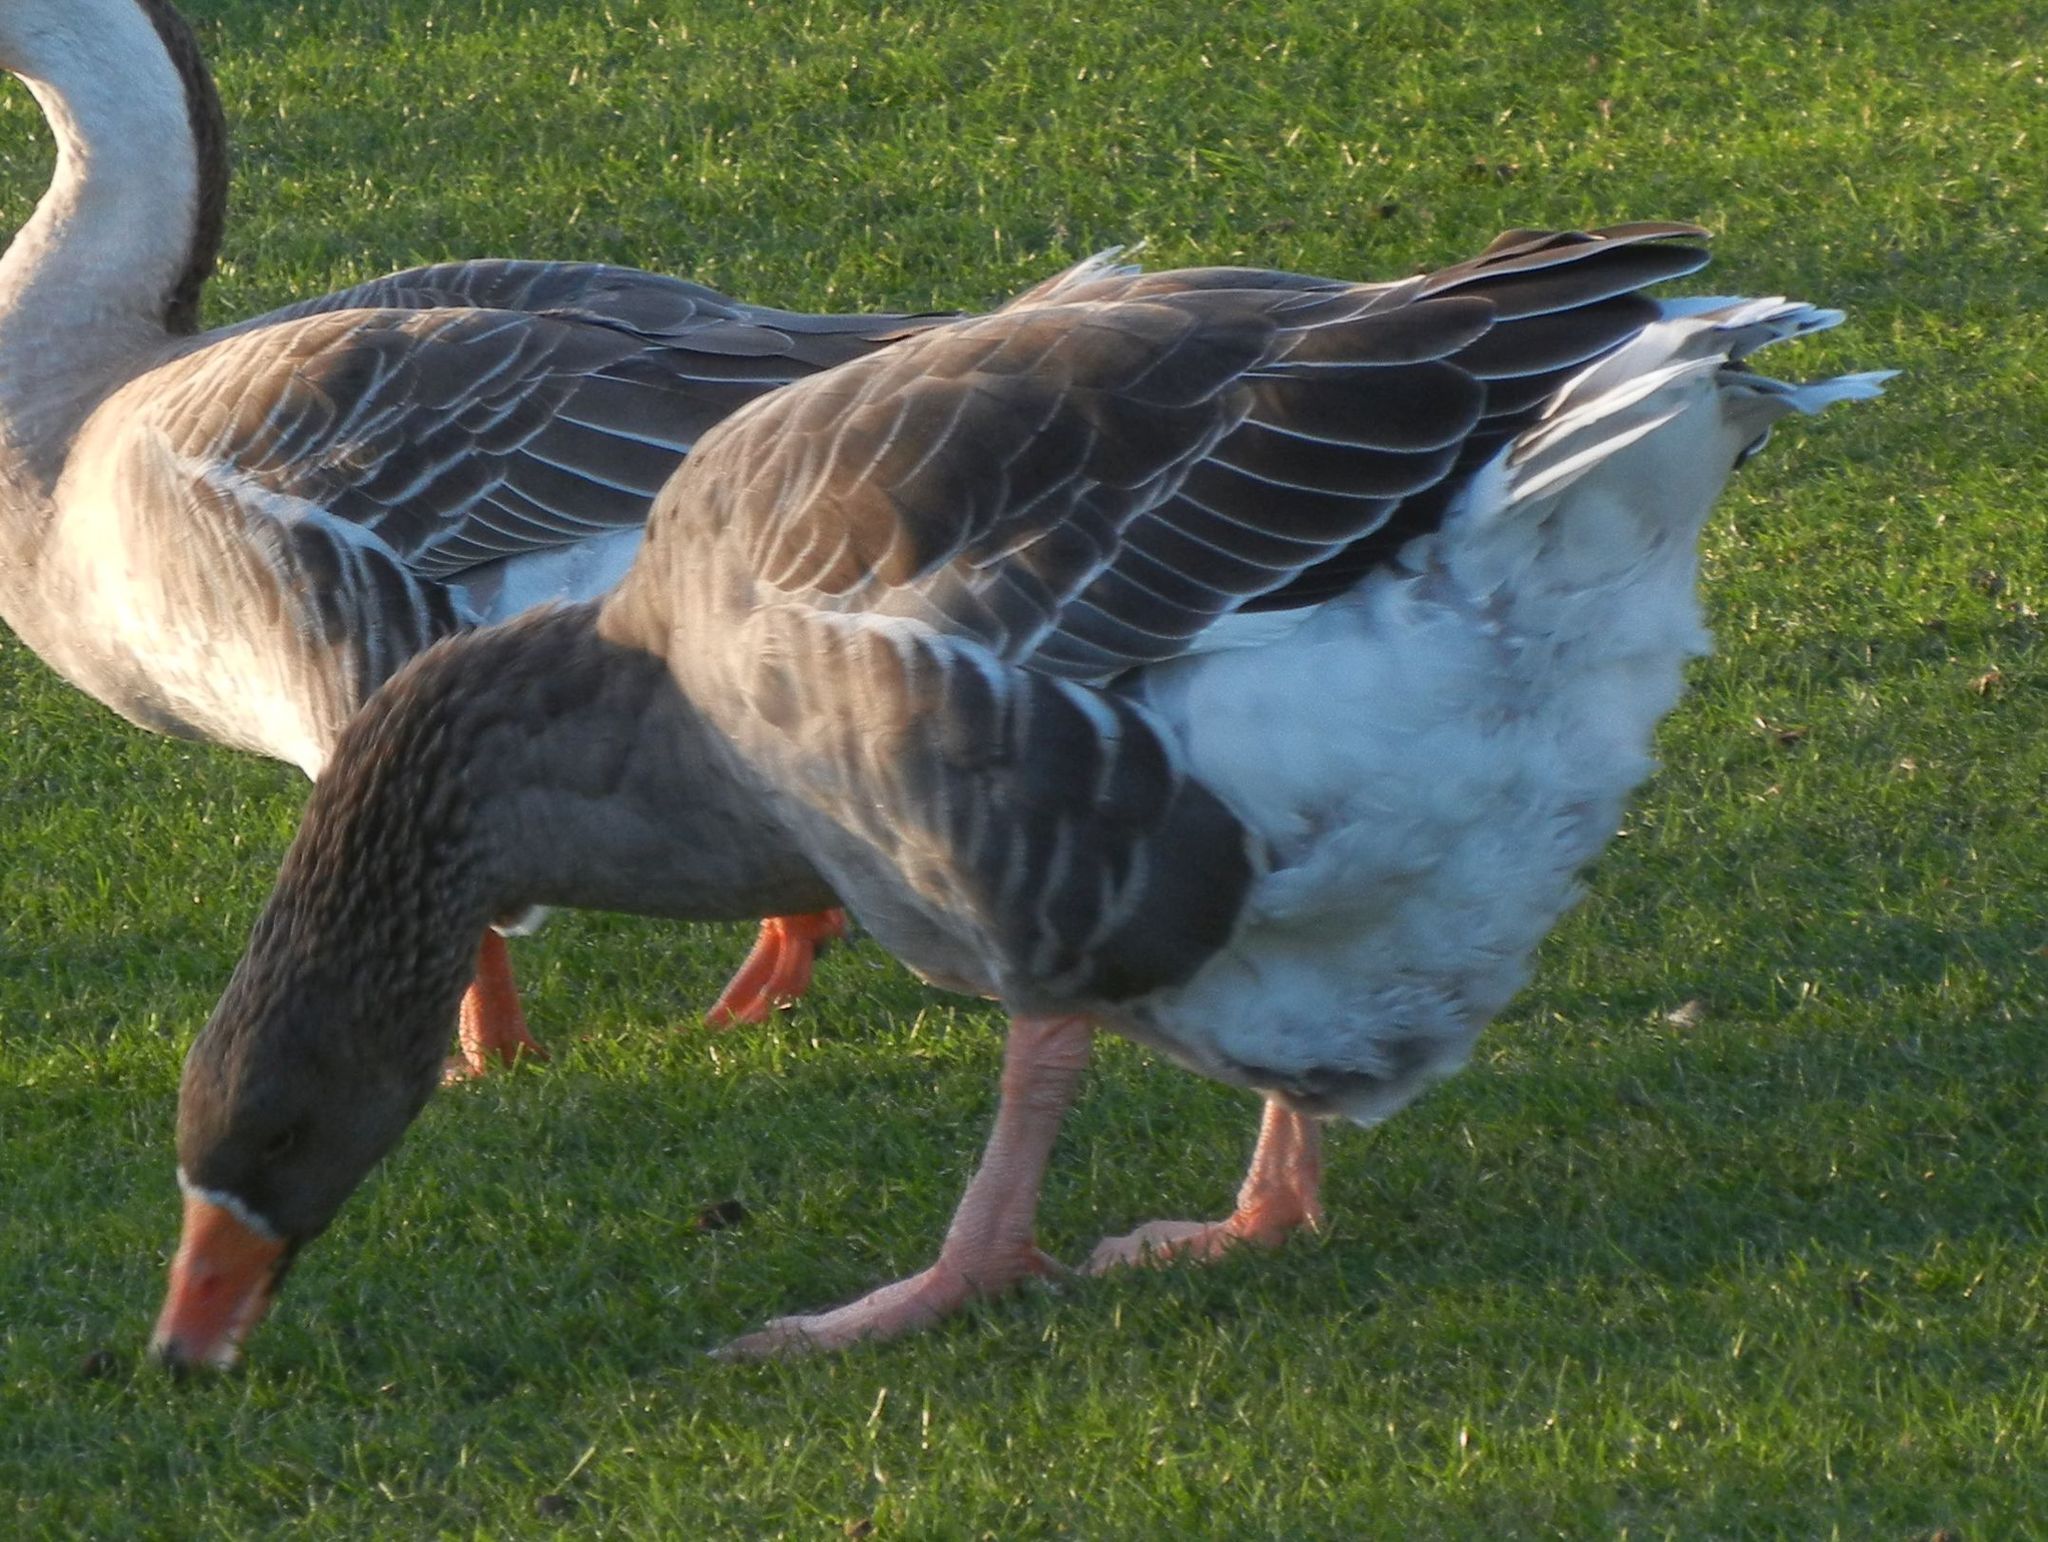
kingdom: Animalia
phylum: Chordata
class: Aves
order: Anseriformes
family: Anatidae
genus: Anser
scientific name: Anser anser
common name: Greylag goose
